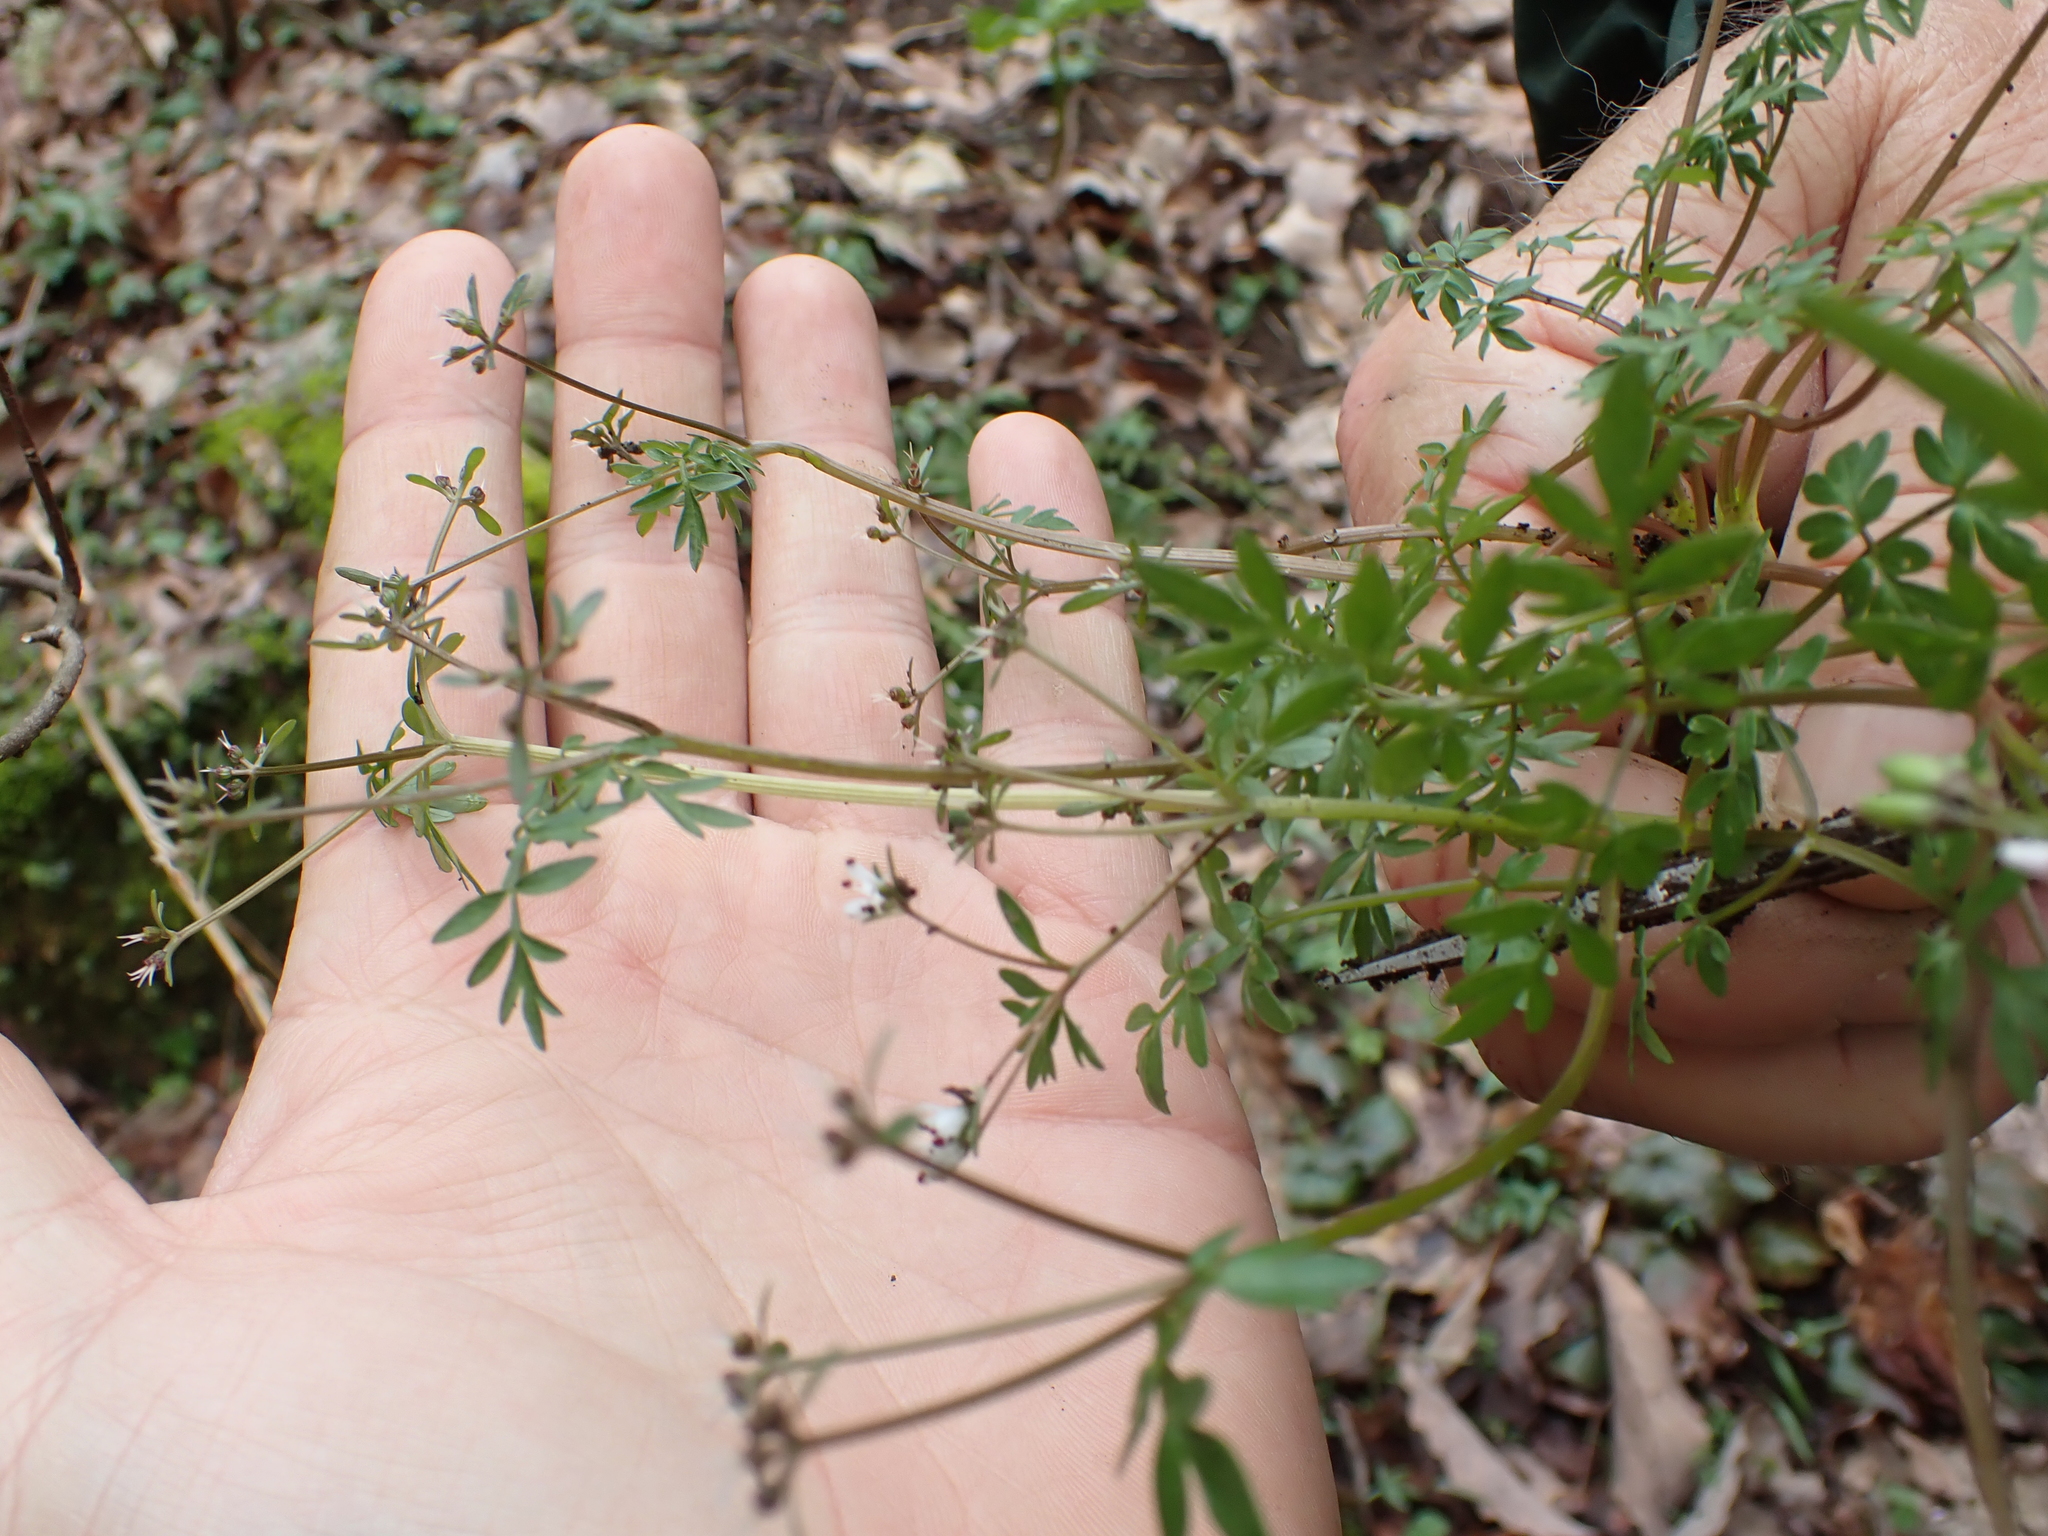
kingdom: Plantae
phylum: Tracheophyta
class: Magnoliopsida
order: Apiales
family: Apiaceae
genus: Erigenia
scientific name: Erigenia bulbosa
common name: Pepper-and-salt
